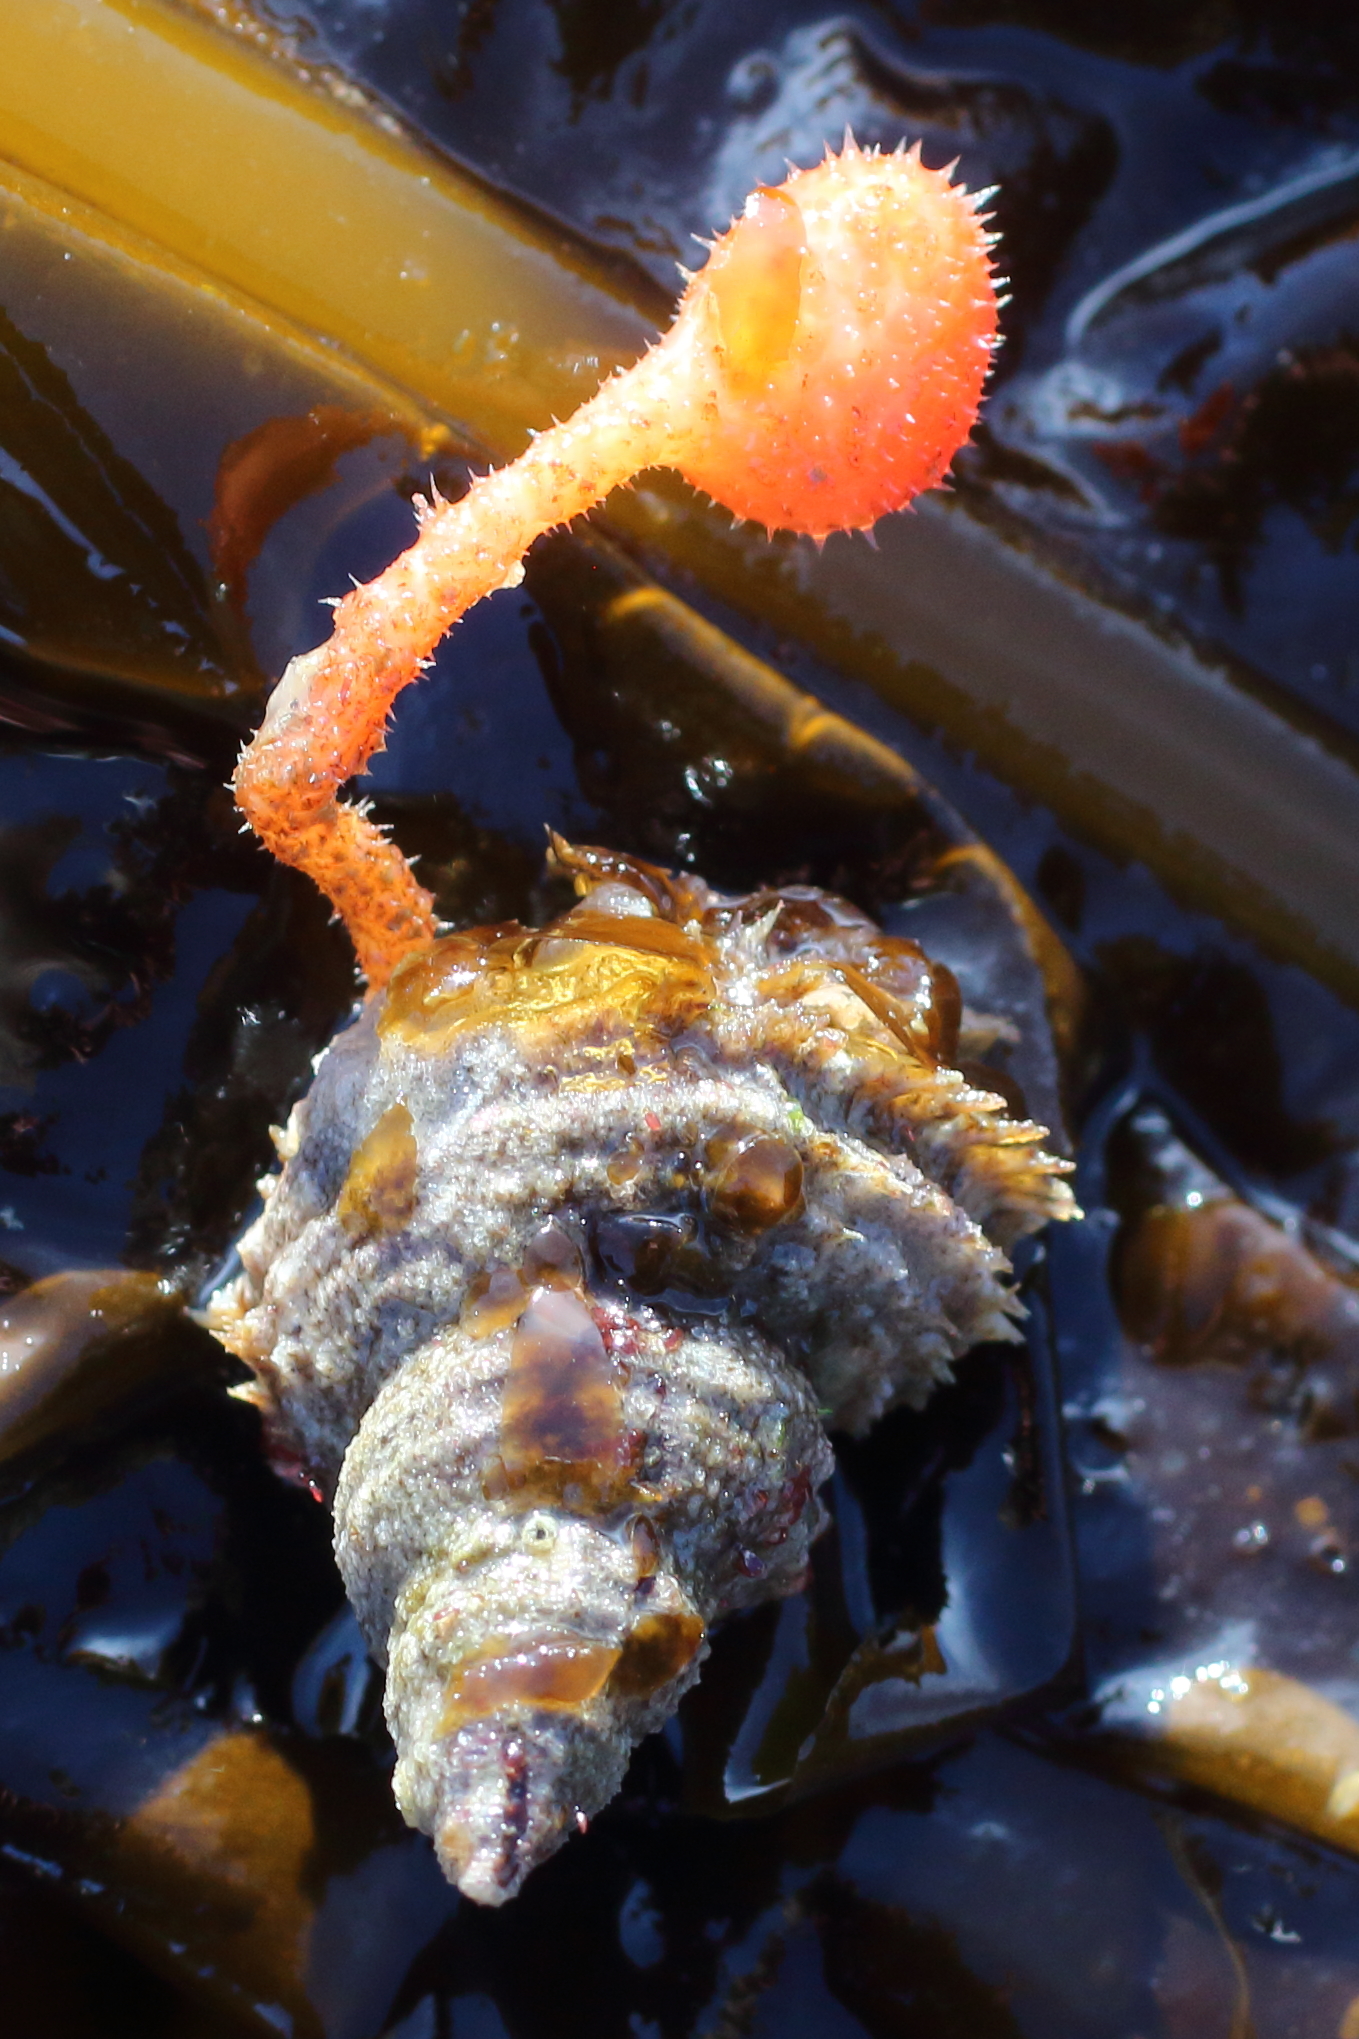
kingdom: Animalia
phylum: Chordata
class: Ascidiacea
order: Stolidobranchia
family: Pyuridae
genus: Boltenia
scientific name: Boltenia villosa
